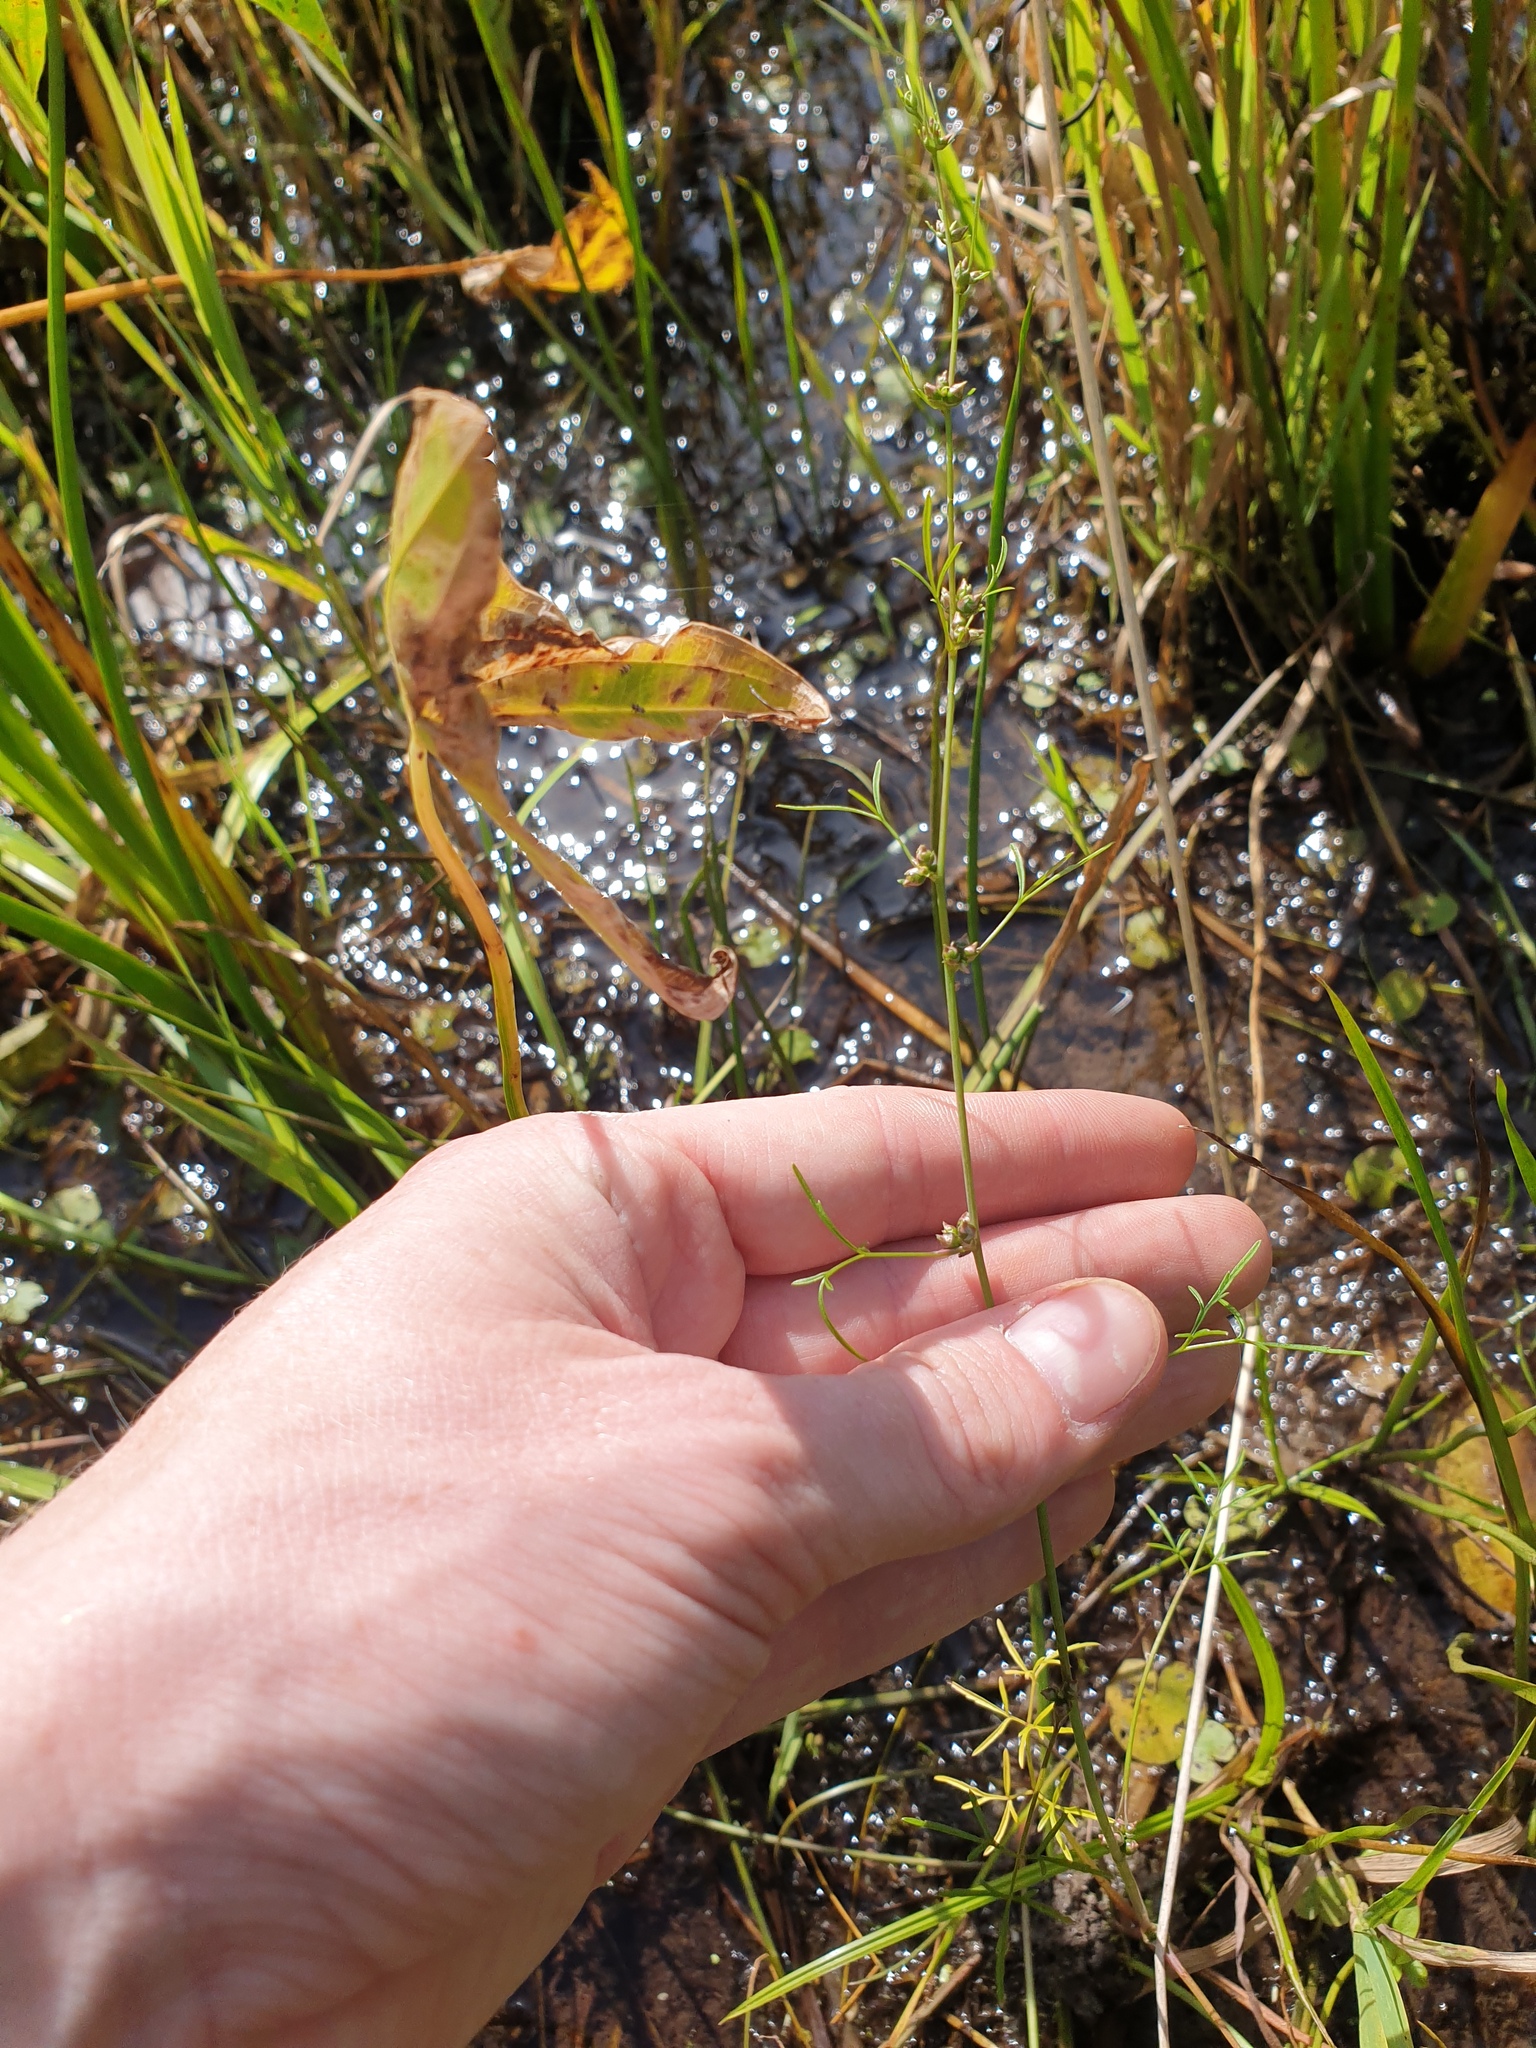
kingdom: Plantae
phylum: Tracheophyta
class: Magnoliopsida
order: Apiales
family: Apiaceae
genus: Cicuta
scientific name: Cicuta bulbifera
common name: Bulb-bearing water-hemlock
